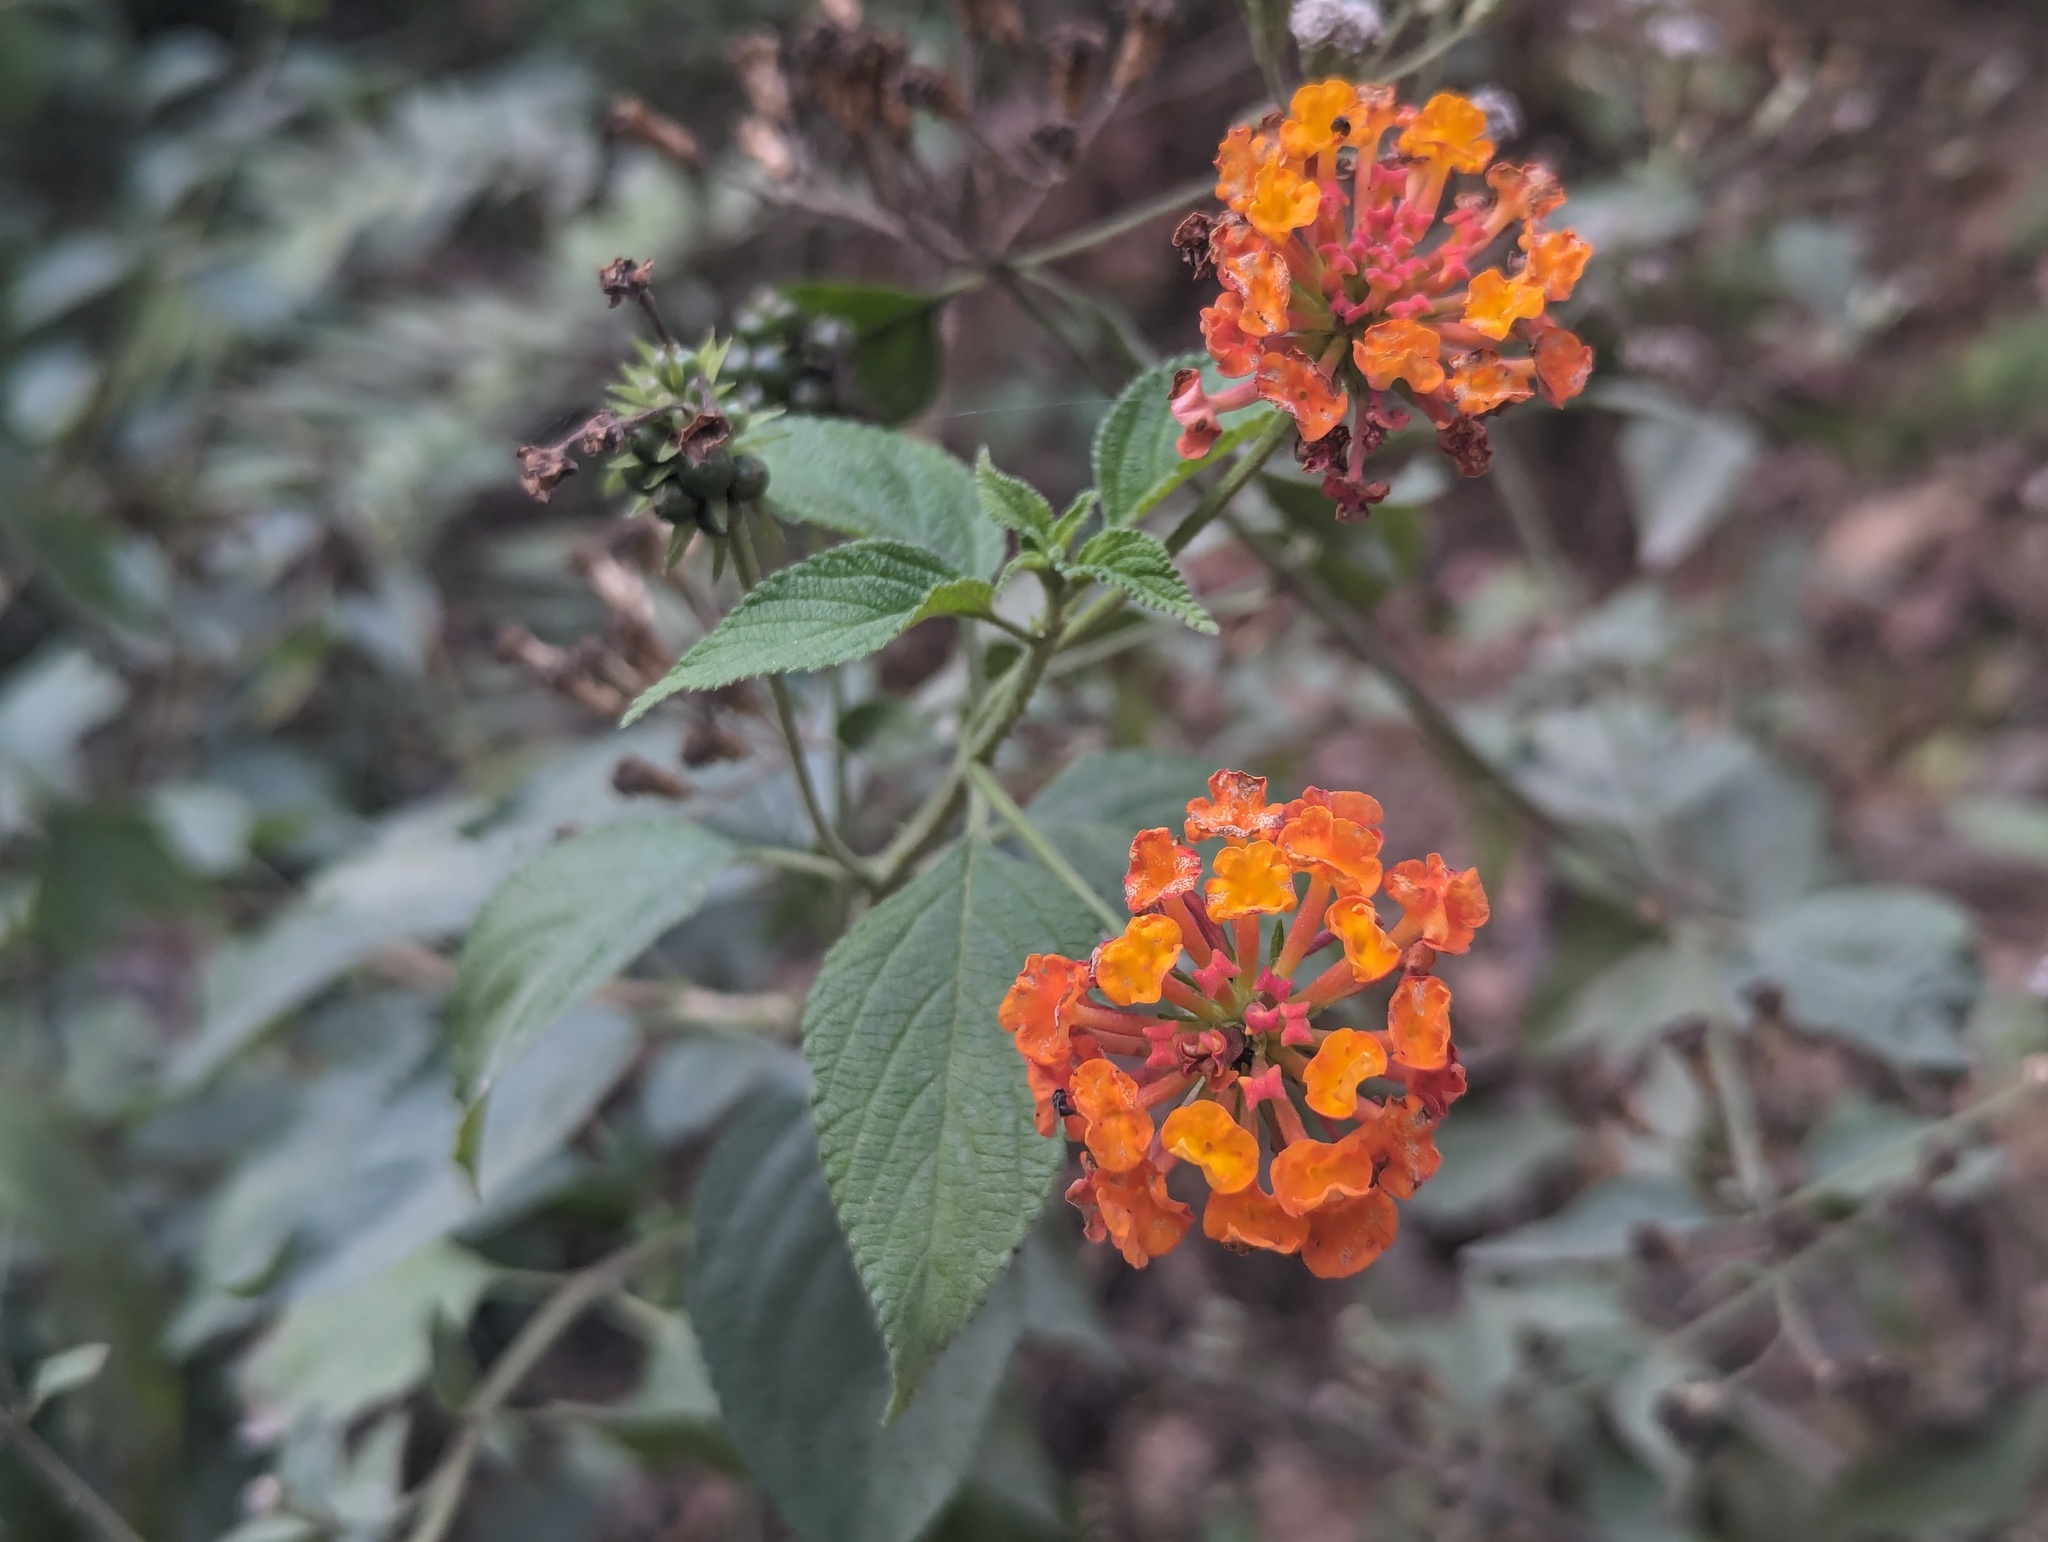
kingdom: Plantae
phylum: Tracheophyta
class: Magnoliopsida
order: Lamiales
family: Verbenaceae
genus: Lantana
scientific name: Lantana camara
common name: Lantana
